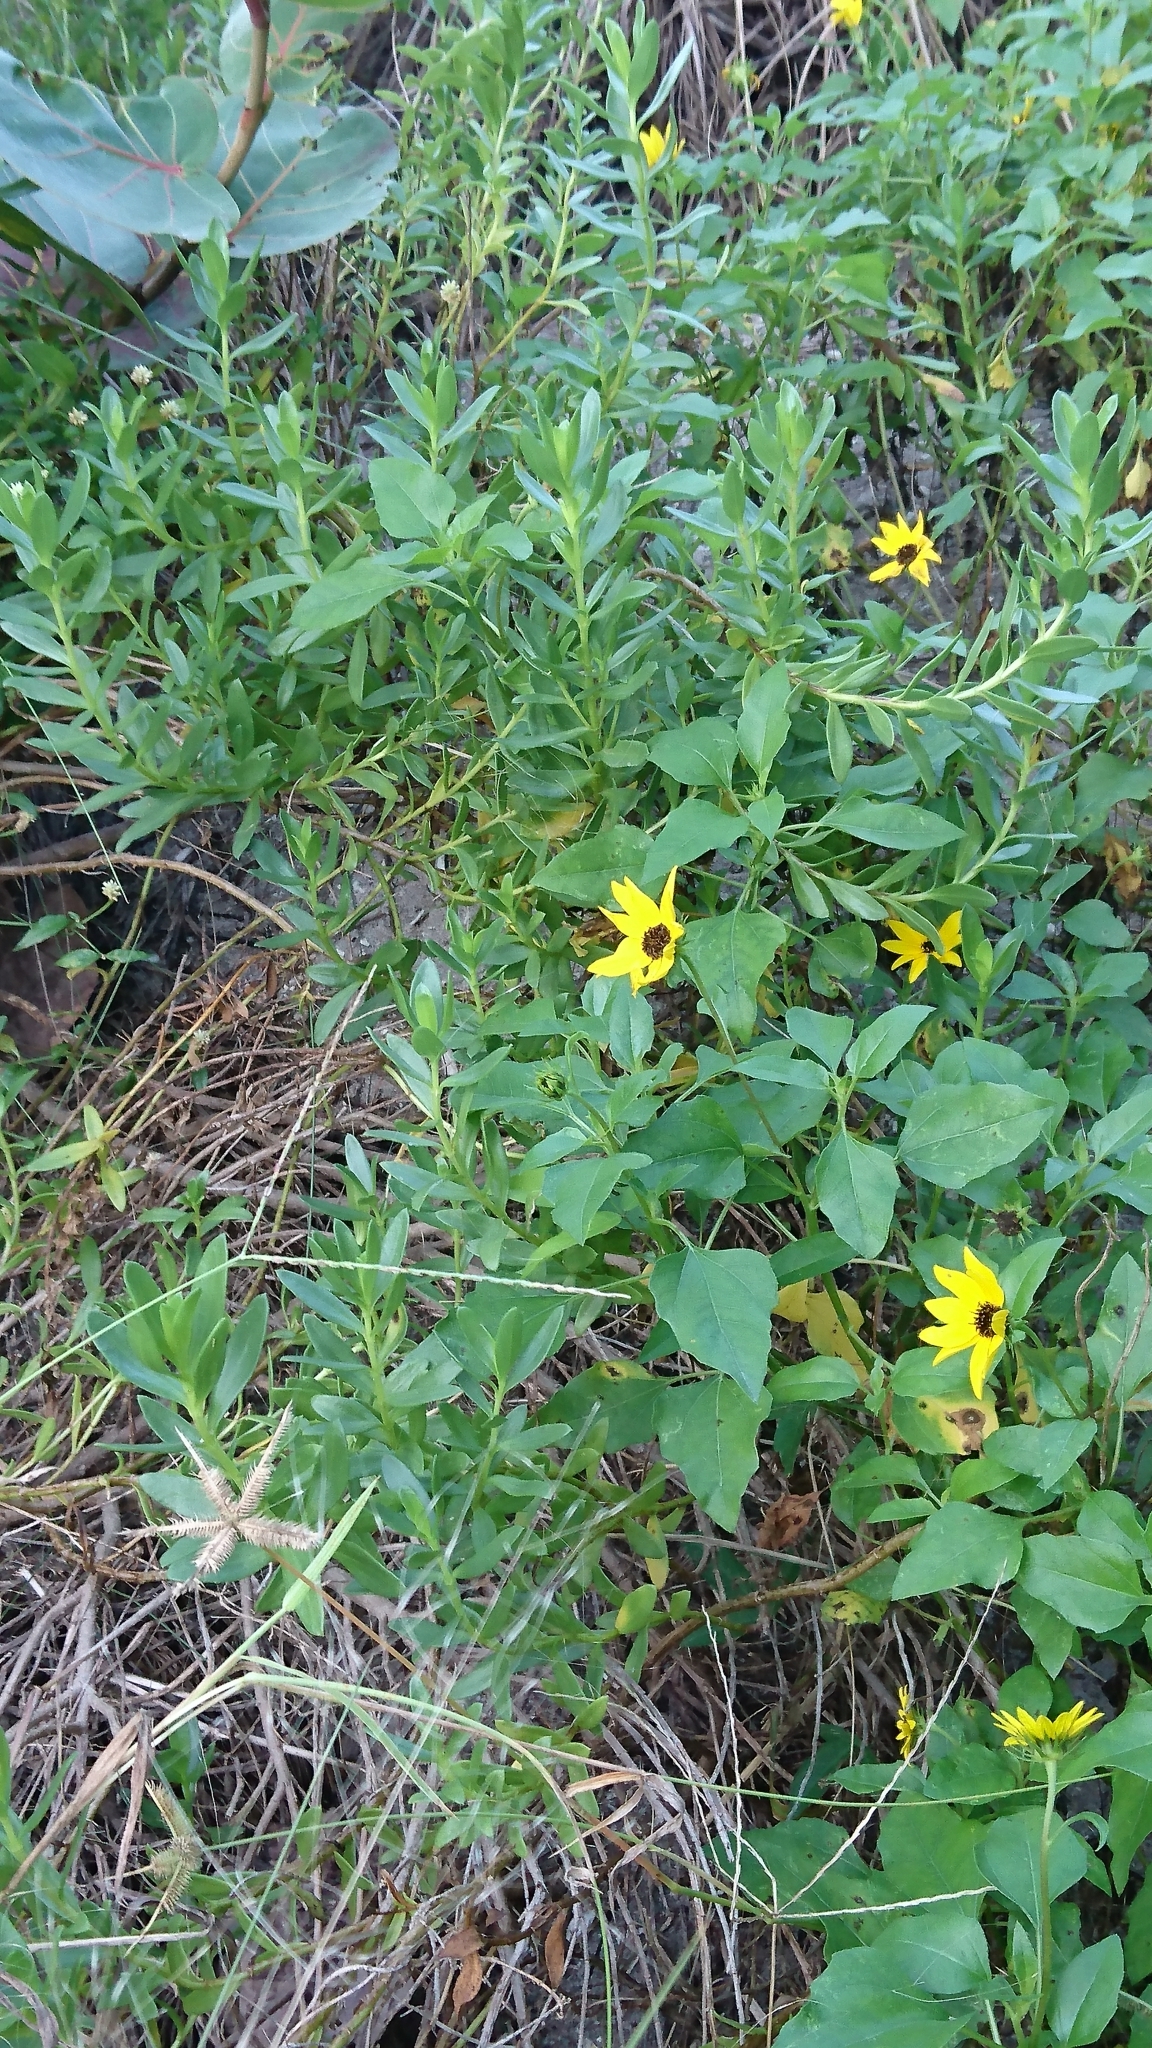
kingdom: Plantae
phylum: Tracheophyta
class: Magnoliopsida
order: Asterales
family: Asteraceae
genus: Helianthus
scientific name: Helianthus debilis
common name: Weak sunflower
